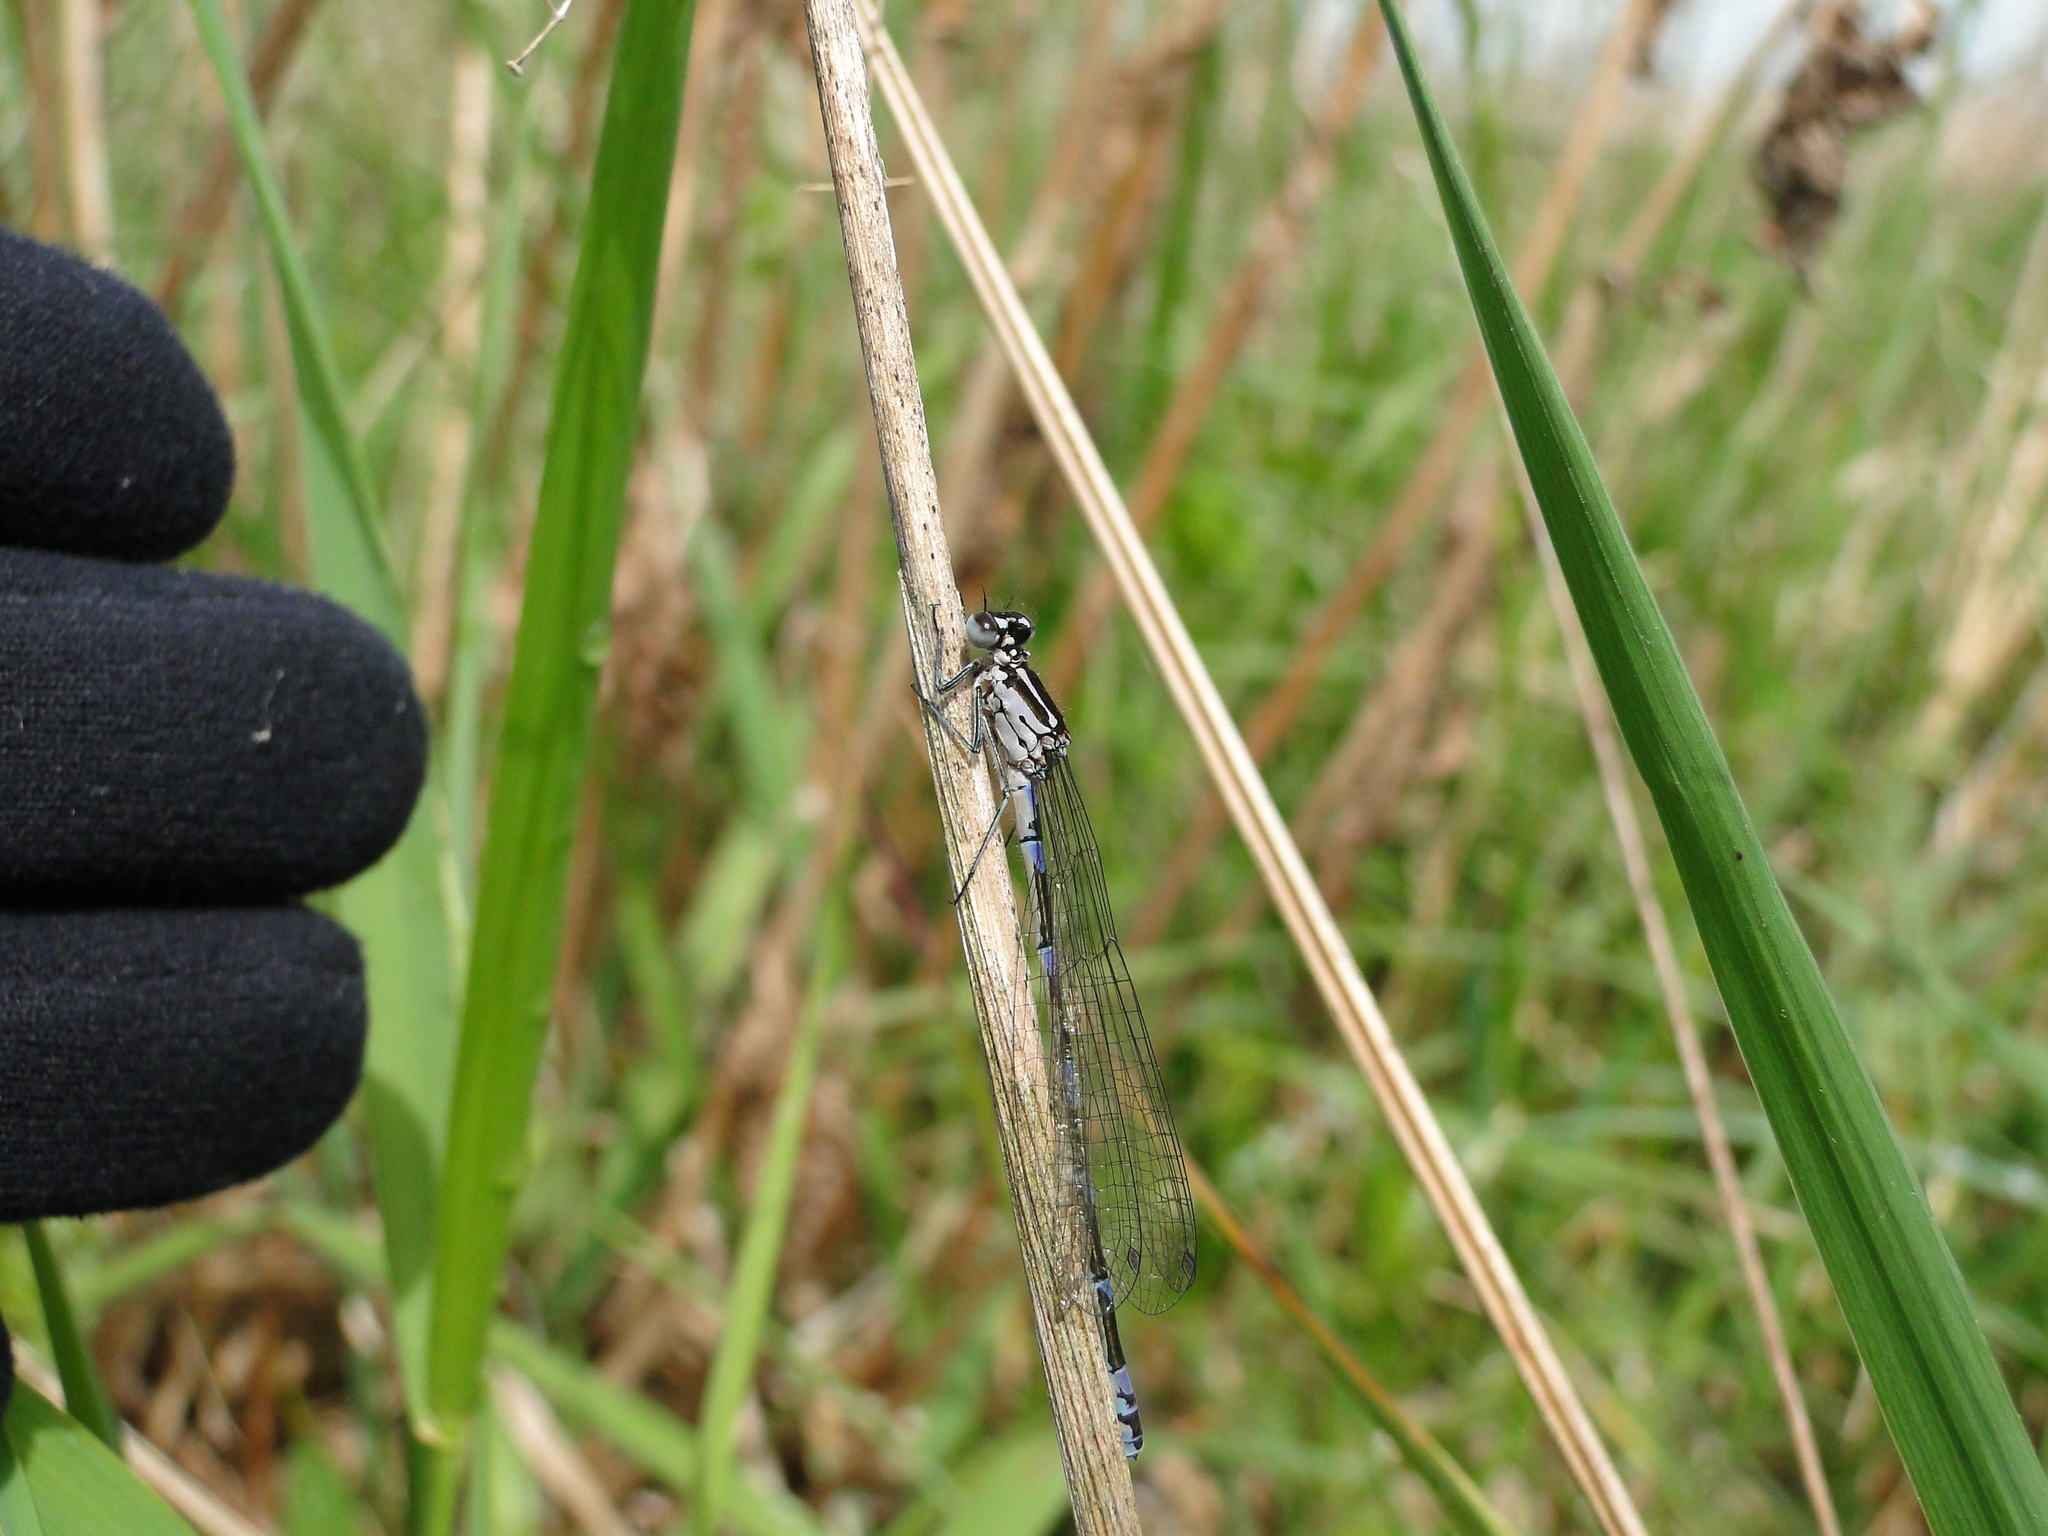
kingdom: Animalia
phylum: Arthropoda
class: Insecta
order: Odonata
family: Coenagrionidae
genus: Coenagrion
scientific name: Coenagrion pulchellum
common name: Variable bluet
